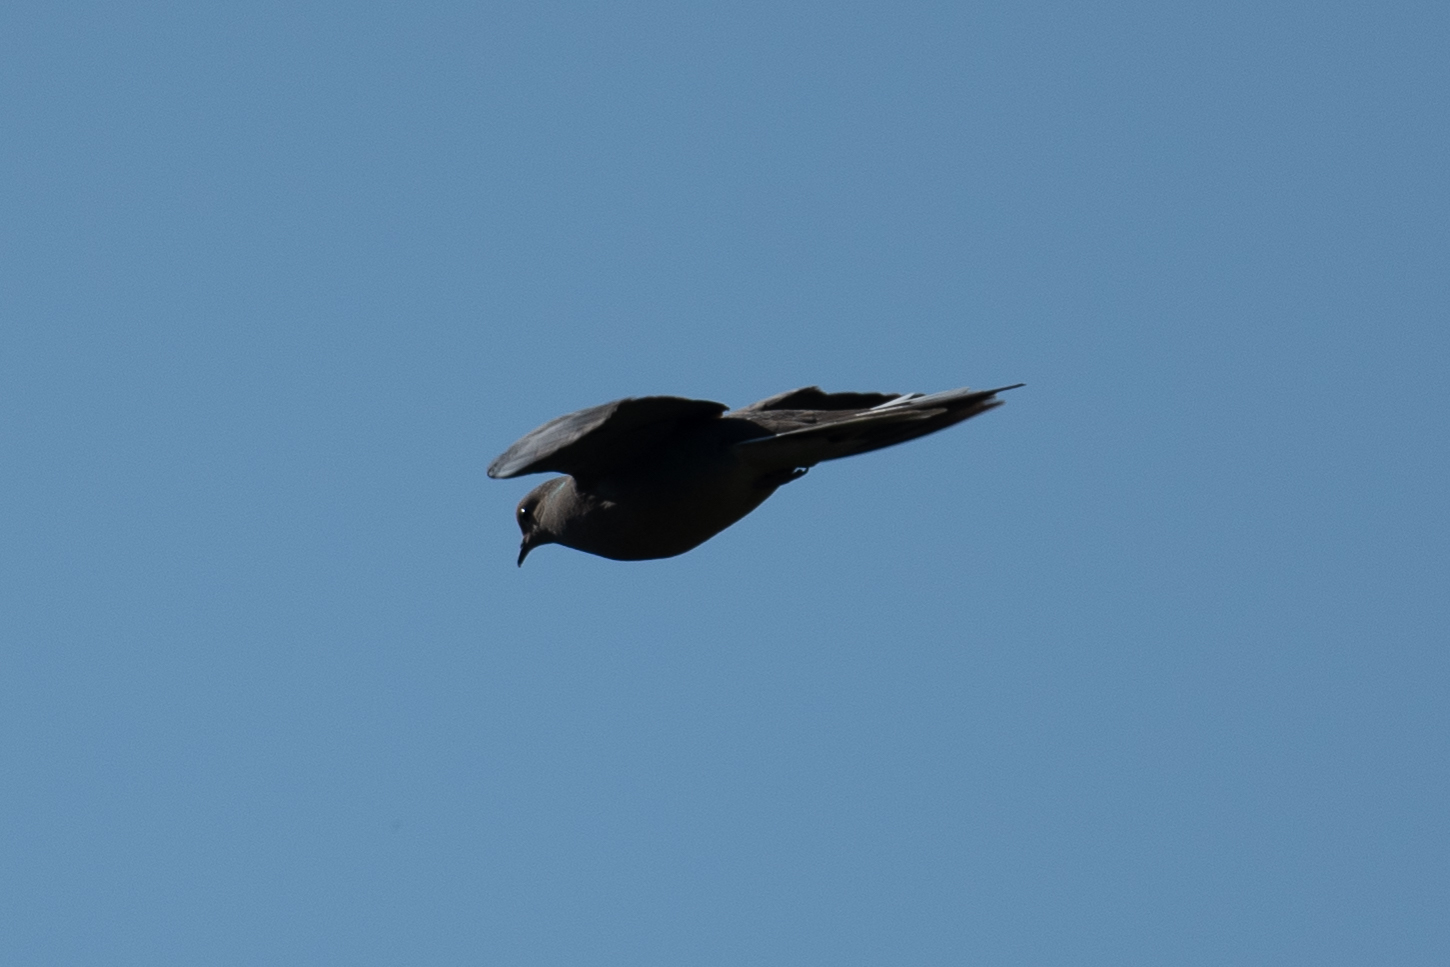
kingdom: Animalia
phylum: Chordata
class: Aves
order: Columbiformes
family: Columbidae
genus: Zenaida
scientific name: Zenaida macroura
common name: Mourning dove
